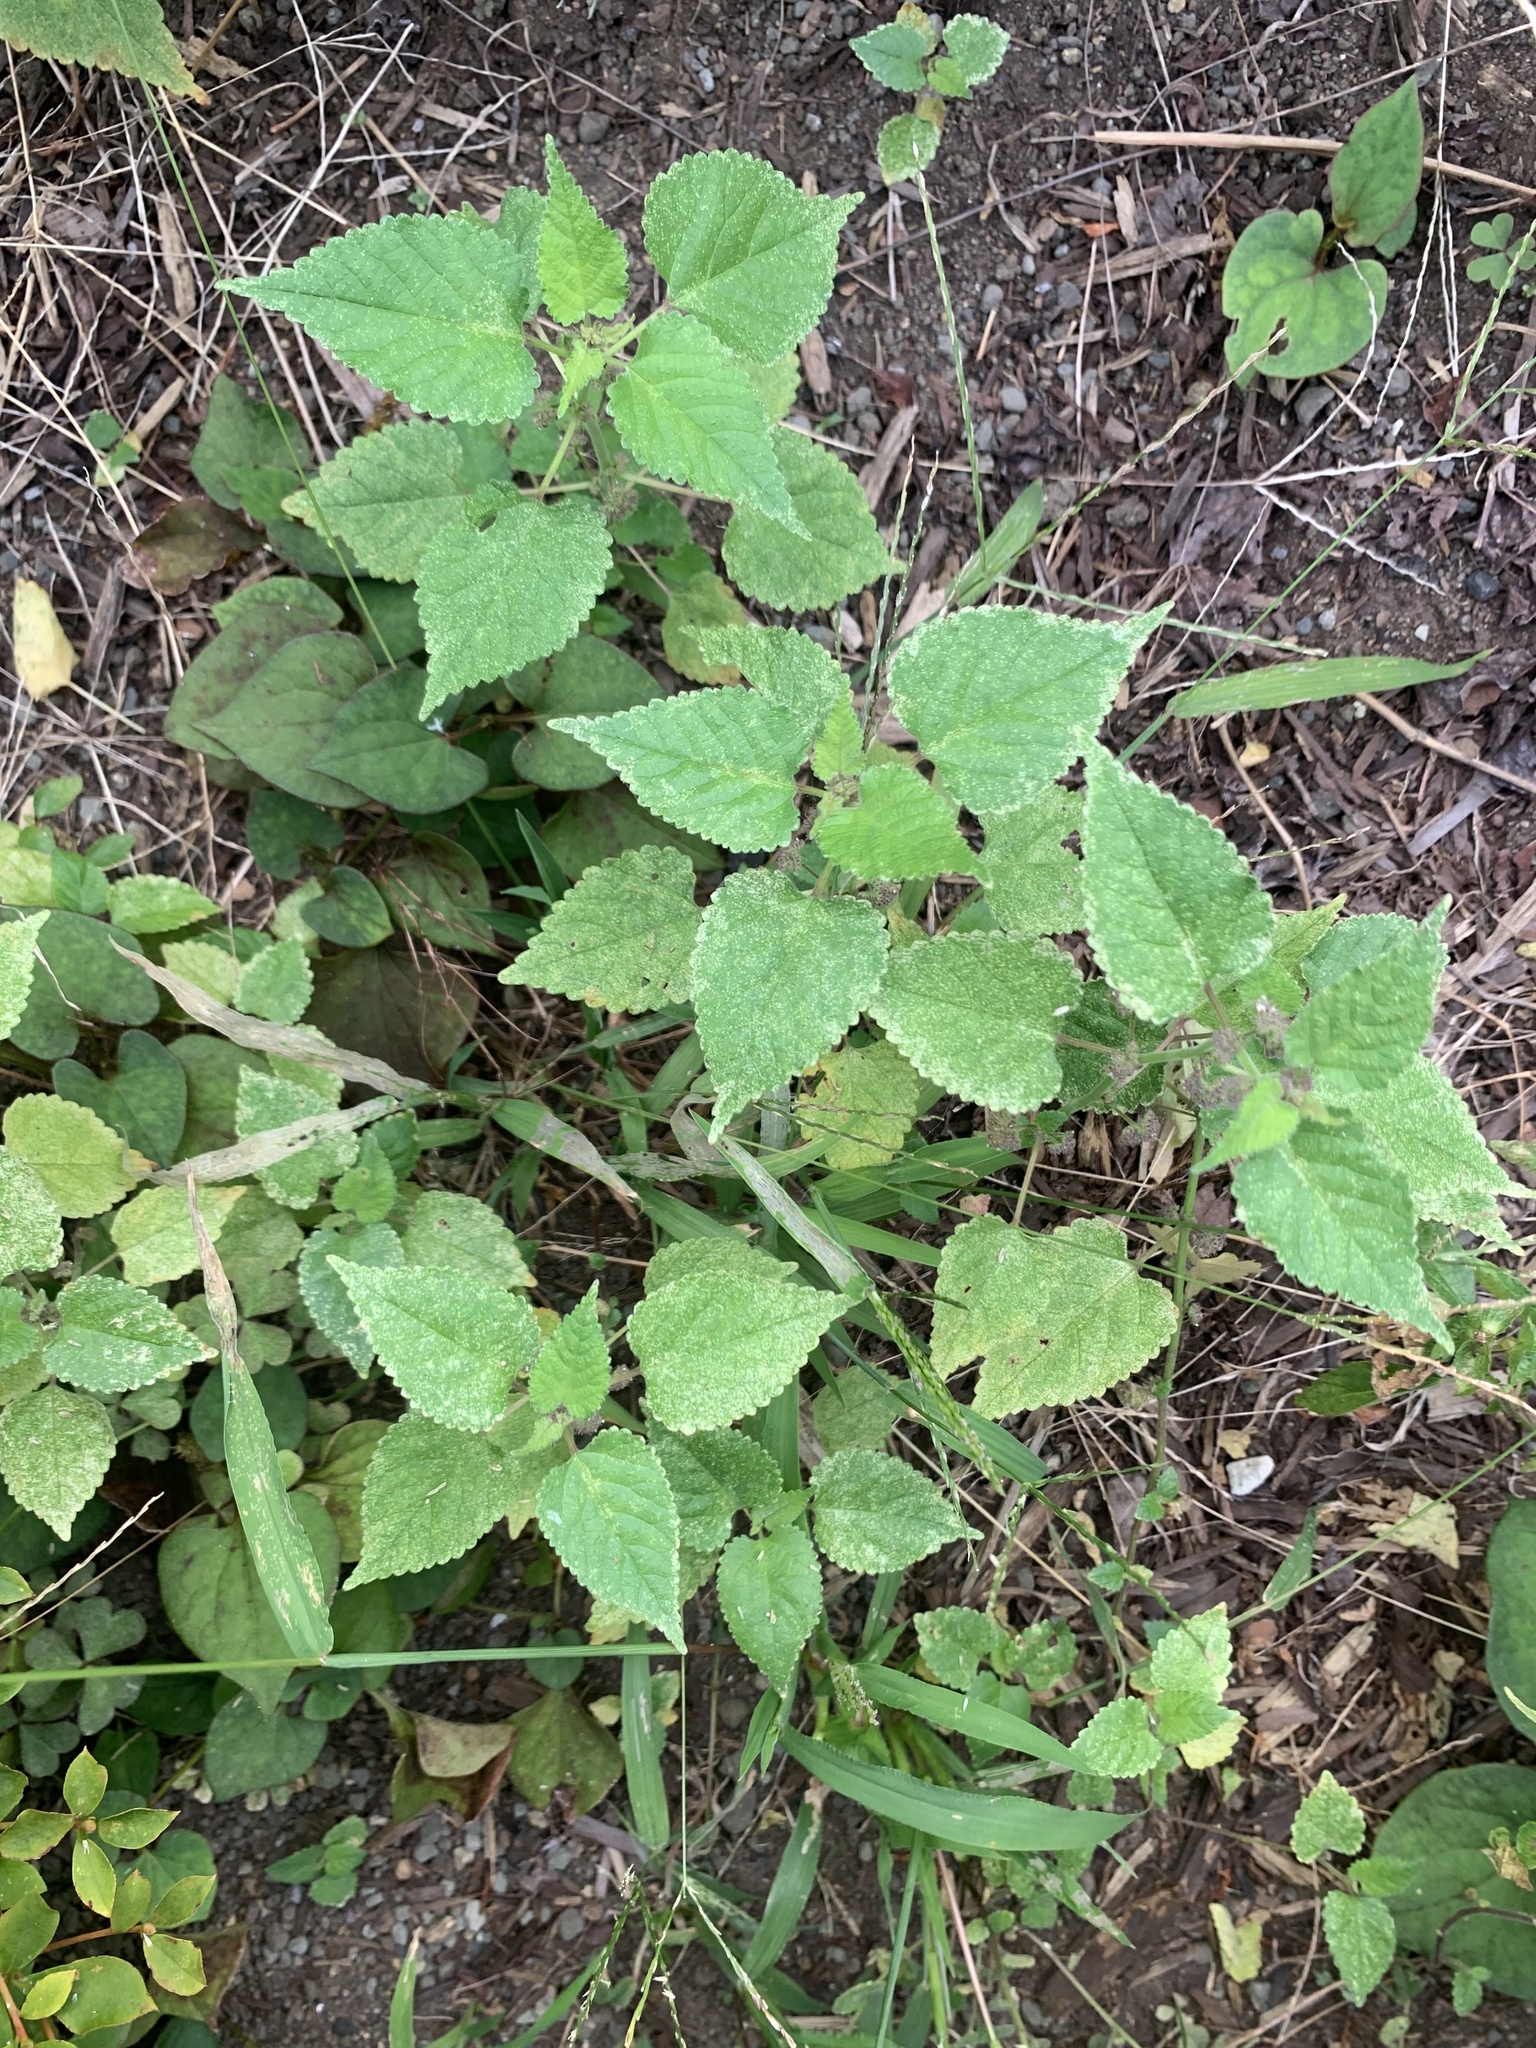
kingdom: Plantae
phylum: Tracheophyta
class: Magnoliopsida
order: Rosales
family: Moraceae
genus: Fatoua
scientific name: Fatoua villosa
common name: Hairy crabweed
